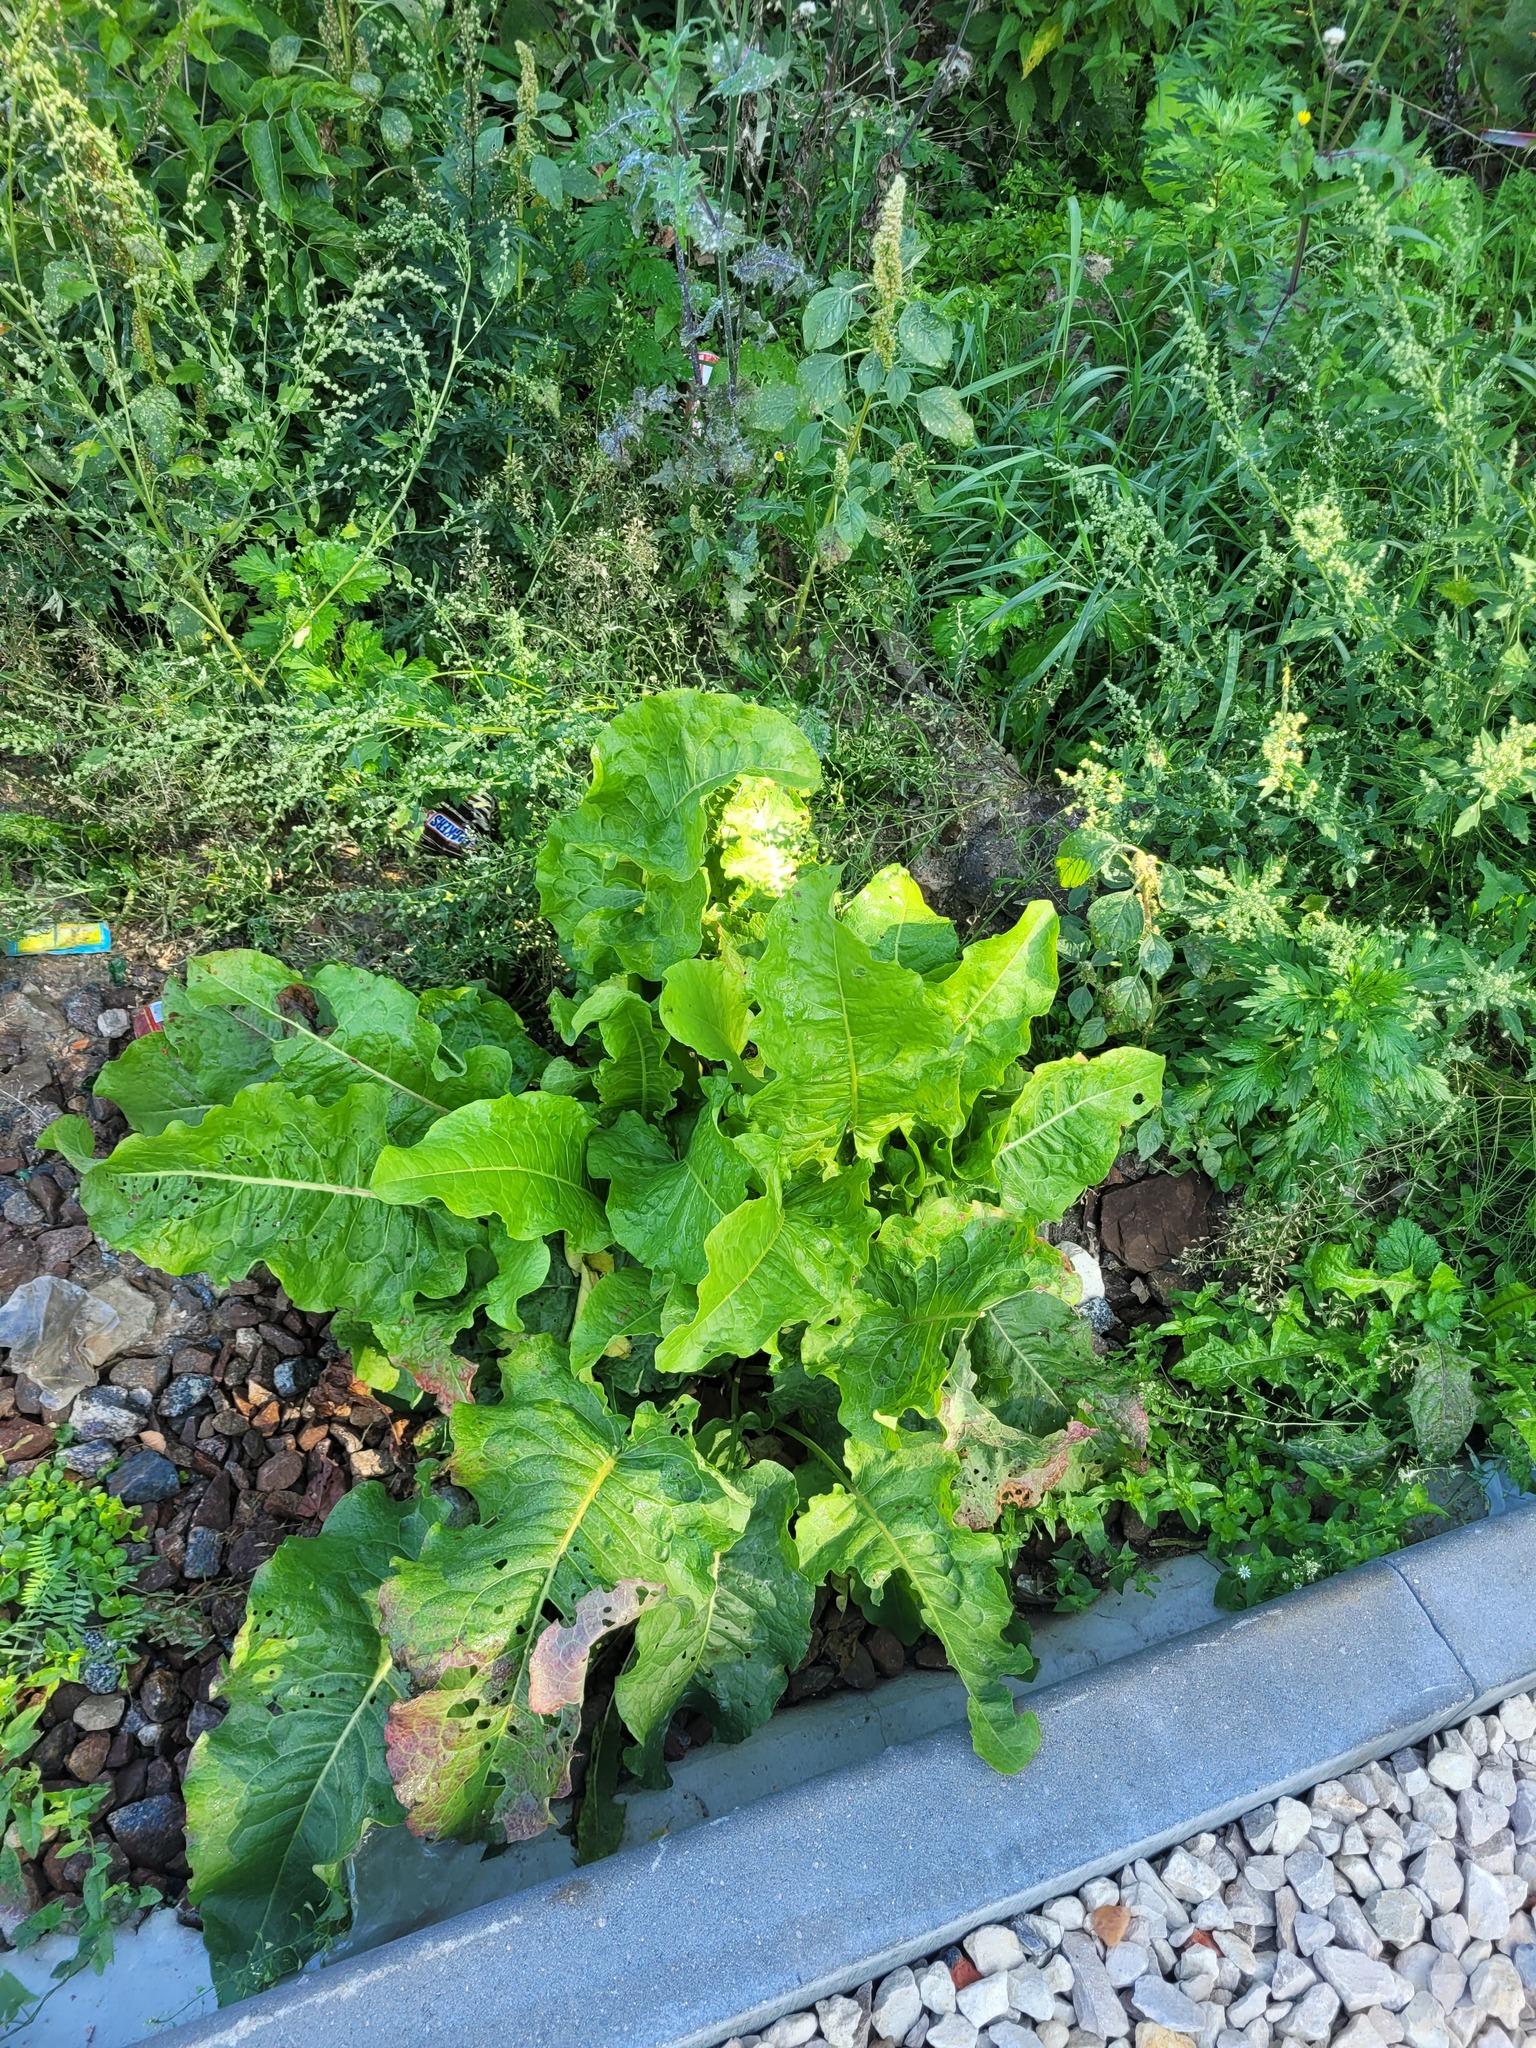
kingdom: Plantae
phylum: Tracheophyta
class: Magnoliopsida
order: Caryophyllales
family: Polygonaceae
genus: Rumex
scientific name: Rumex confertus
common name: Russian dock
